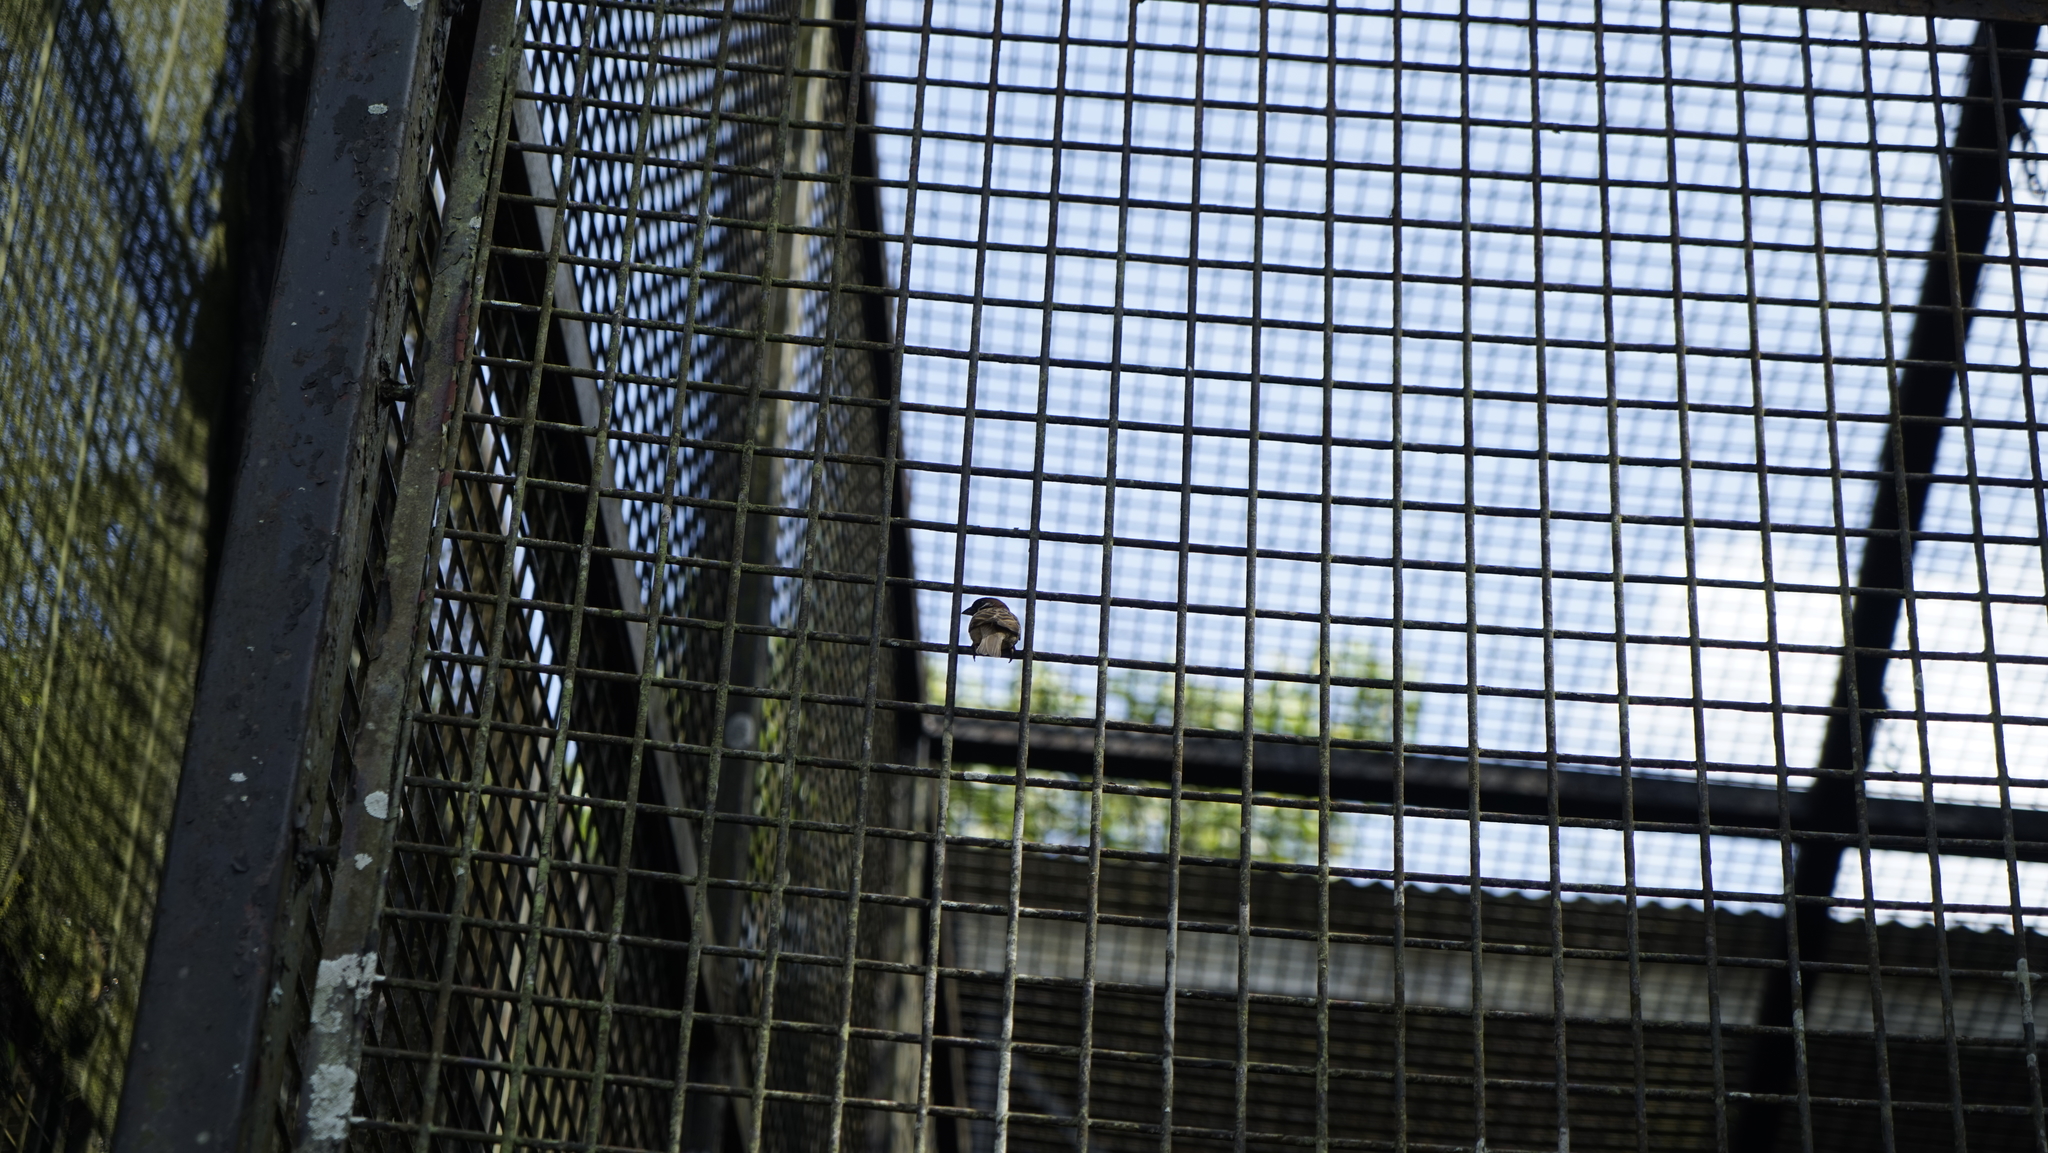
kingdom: Animalia
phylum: Chordata
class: Aves
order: Passeriformes
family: Passeridae
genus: Passer
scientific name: Passer montanus
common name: Eurasian tree sparrow
